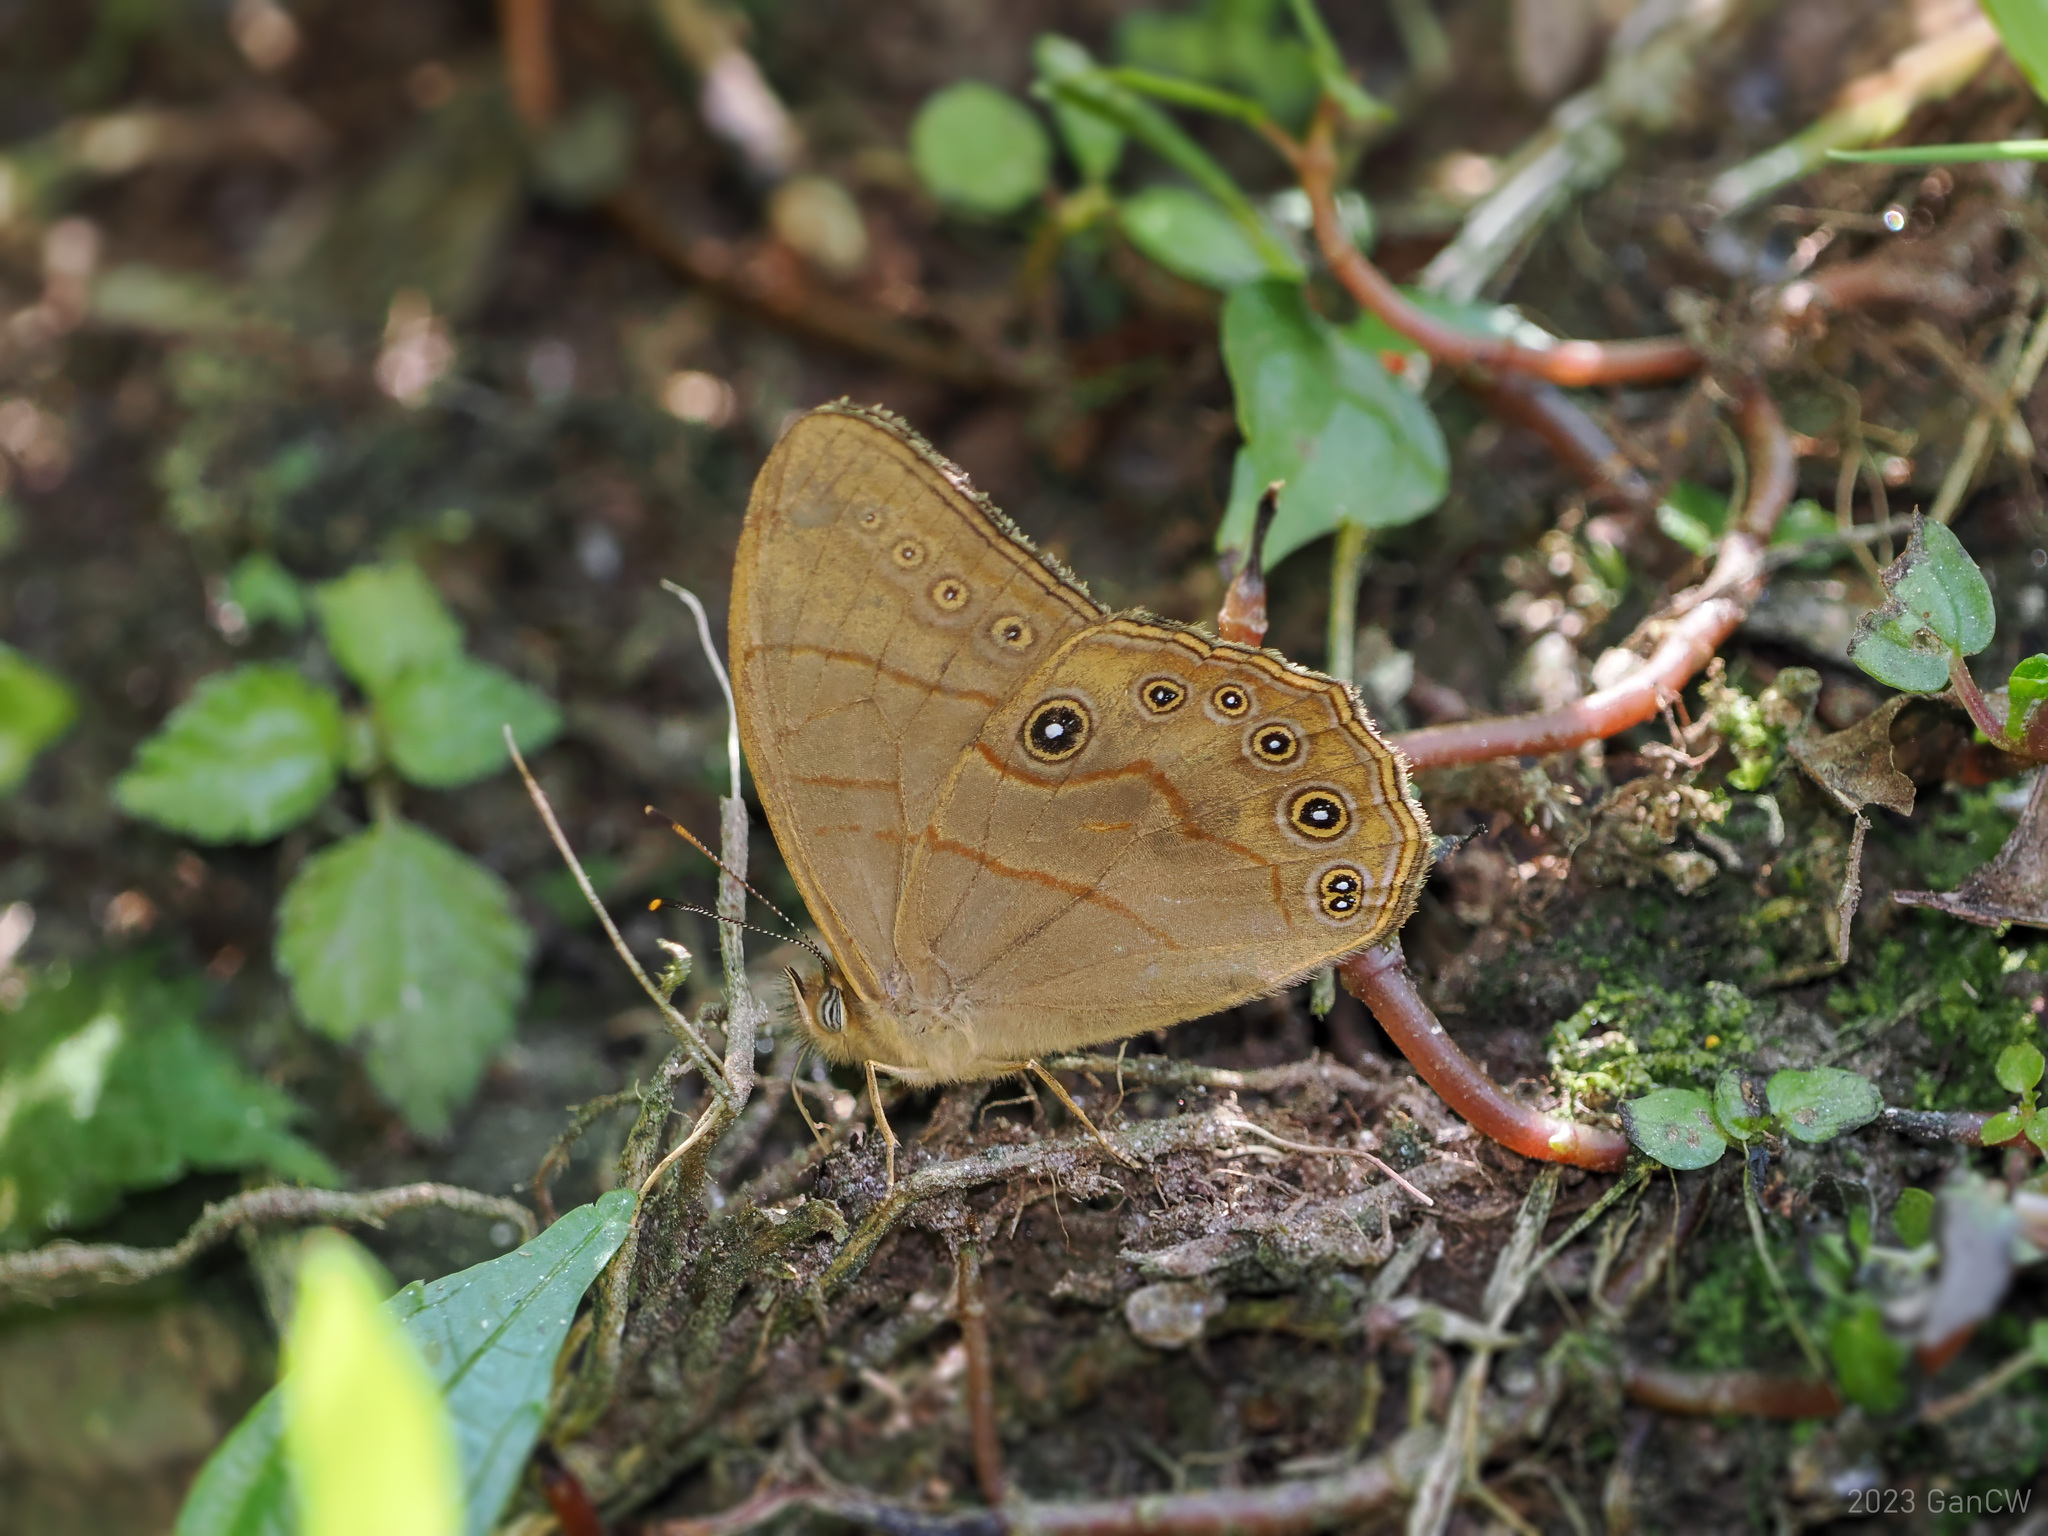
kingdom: Animalia
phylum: Arthropoda
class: Insecta
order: Lepidoptera
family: Nymphalidae
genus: Lethe
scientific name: Lethe latiaris
